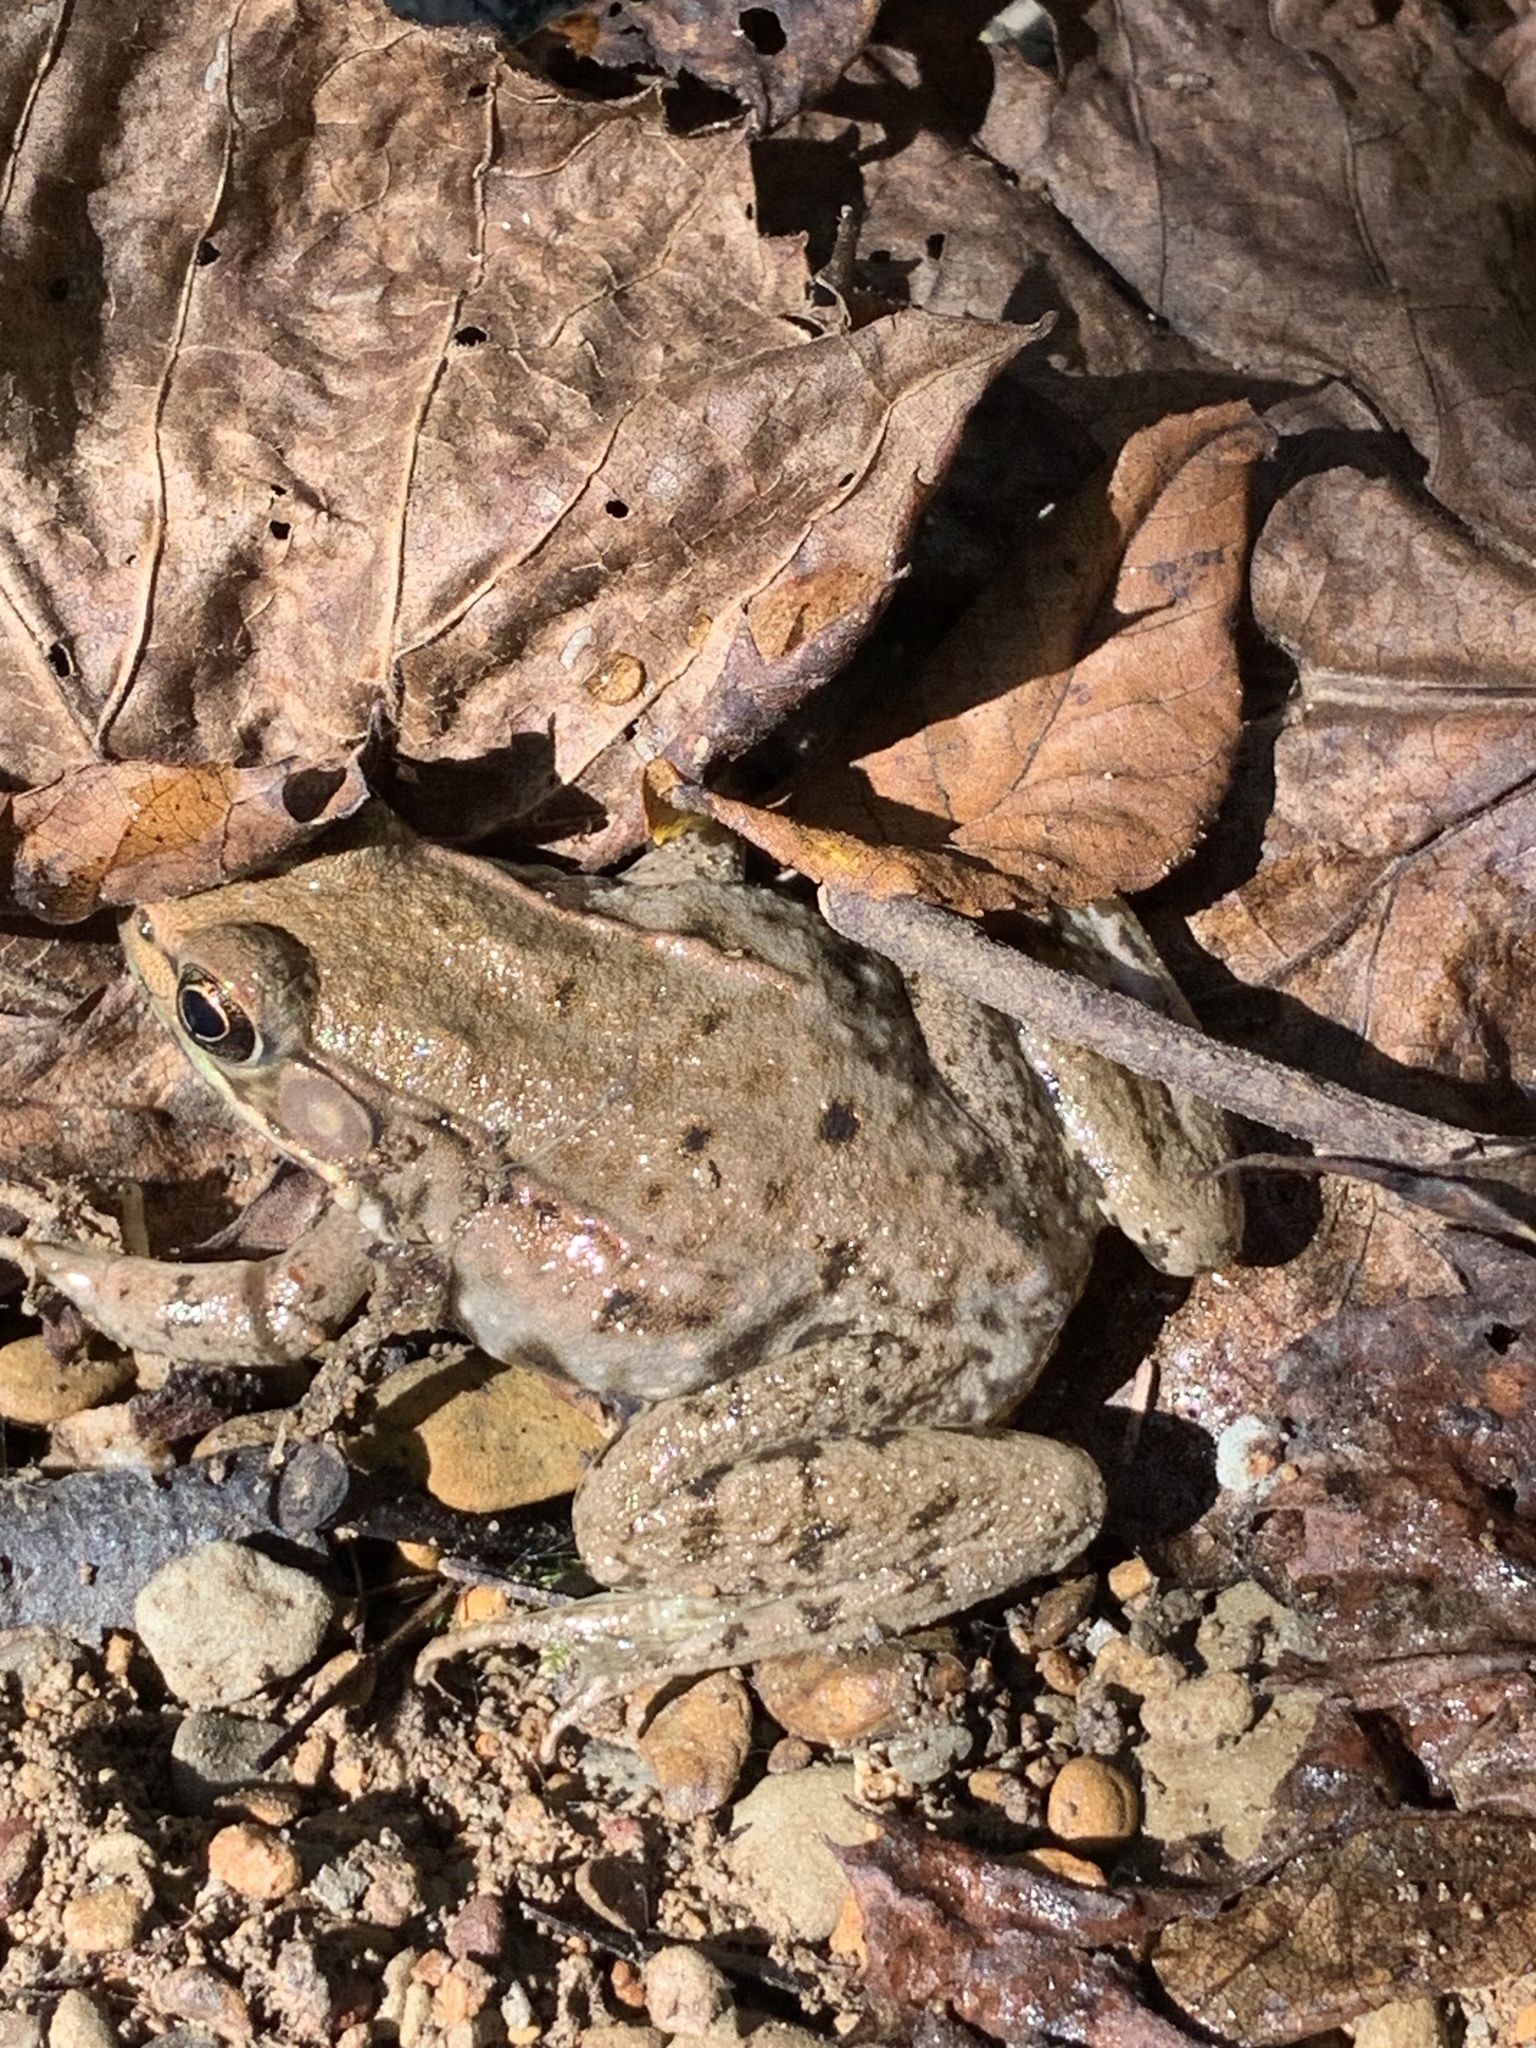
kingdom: Animalia
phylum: Chordata
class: Amphibia
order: Anura
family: Ranidae
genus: Lithobates
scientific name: Lithobates clamitans
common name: Green frog
